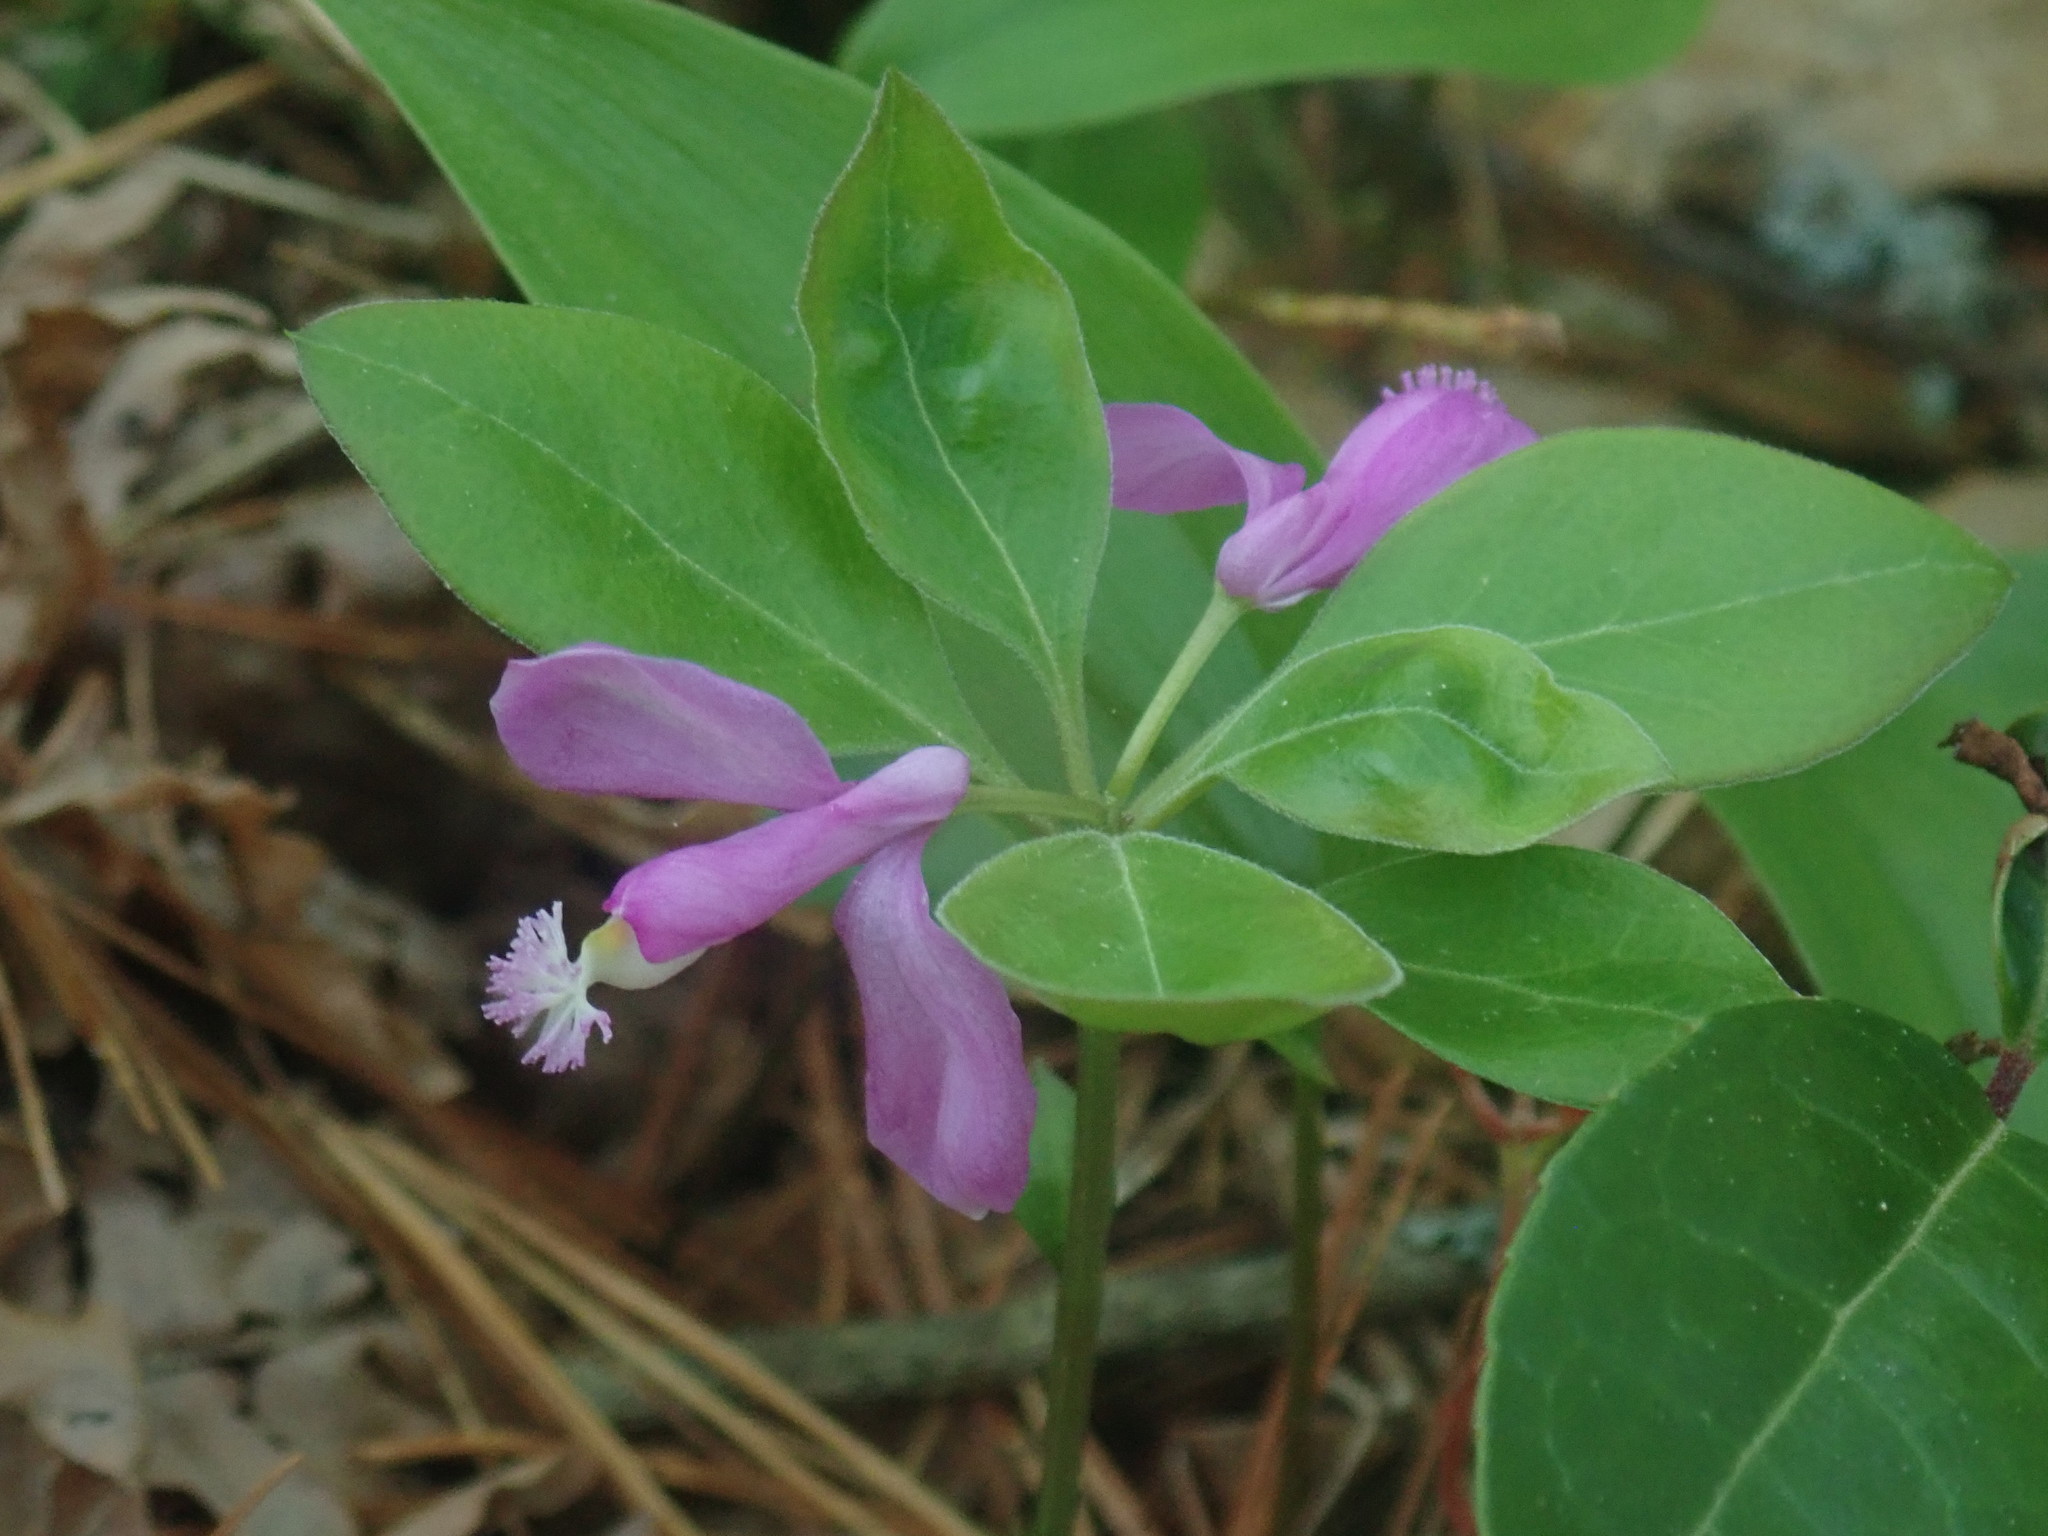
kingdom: Plantae
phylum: Tracheophyta
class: Magnoliopsida
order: Fabales
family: Polygalaceae
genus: Polygaloides
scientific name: Polygaloides paucifolia
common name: Bird-on-the-wing
